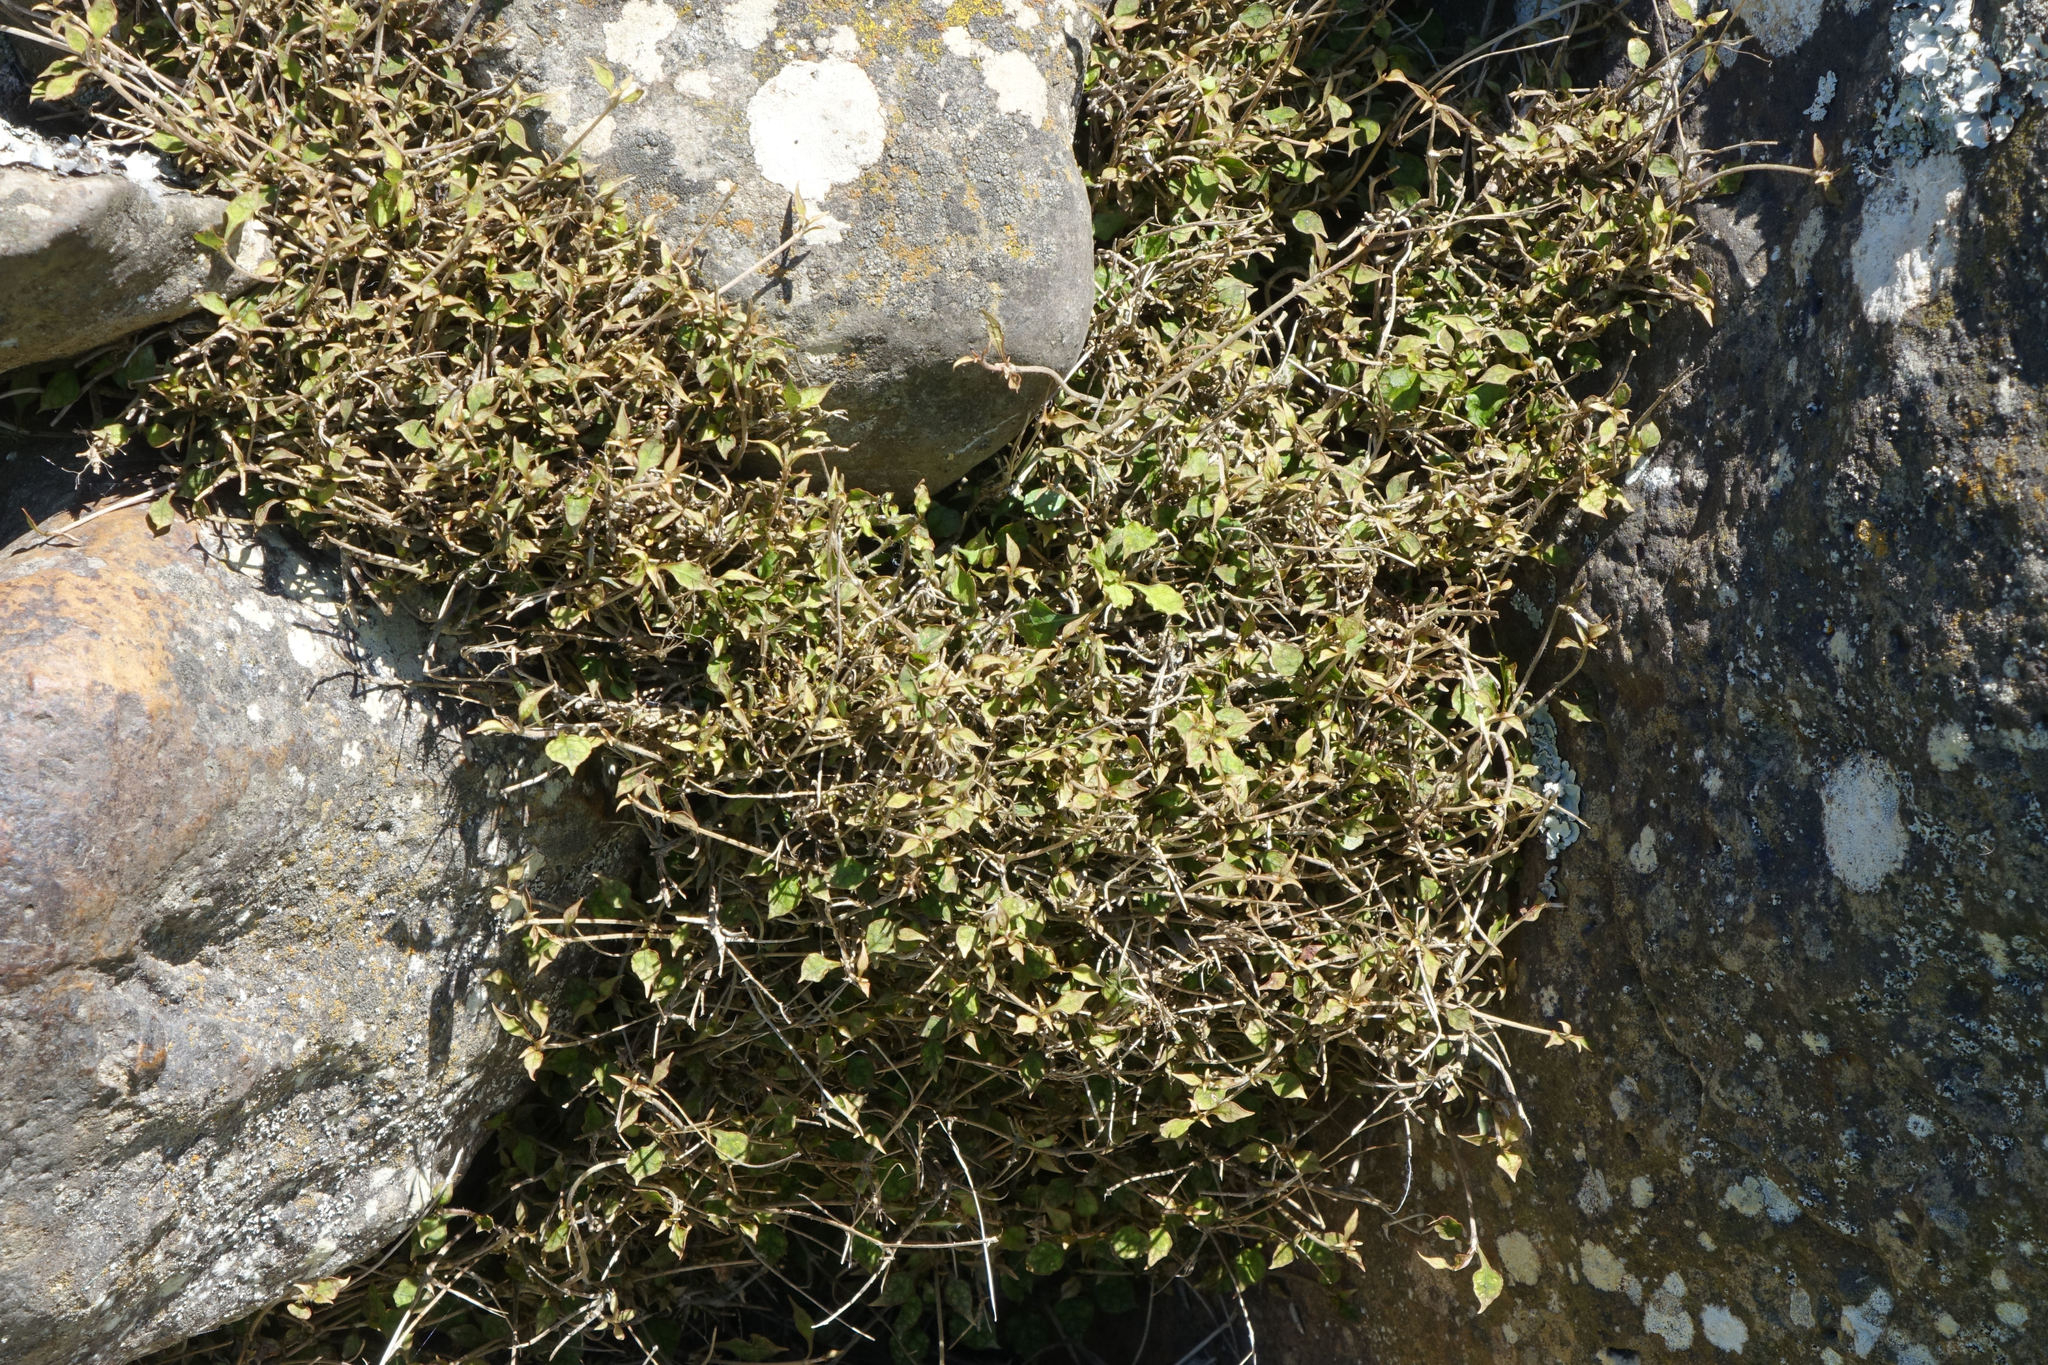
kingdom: Plantae
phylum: Tracheophyta
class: Magnoliopsida
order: Gentianales
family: Rubiaceae
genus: Coprosma
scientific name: Coprosma areolata
